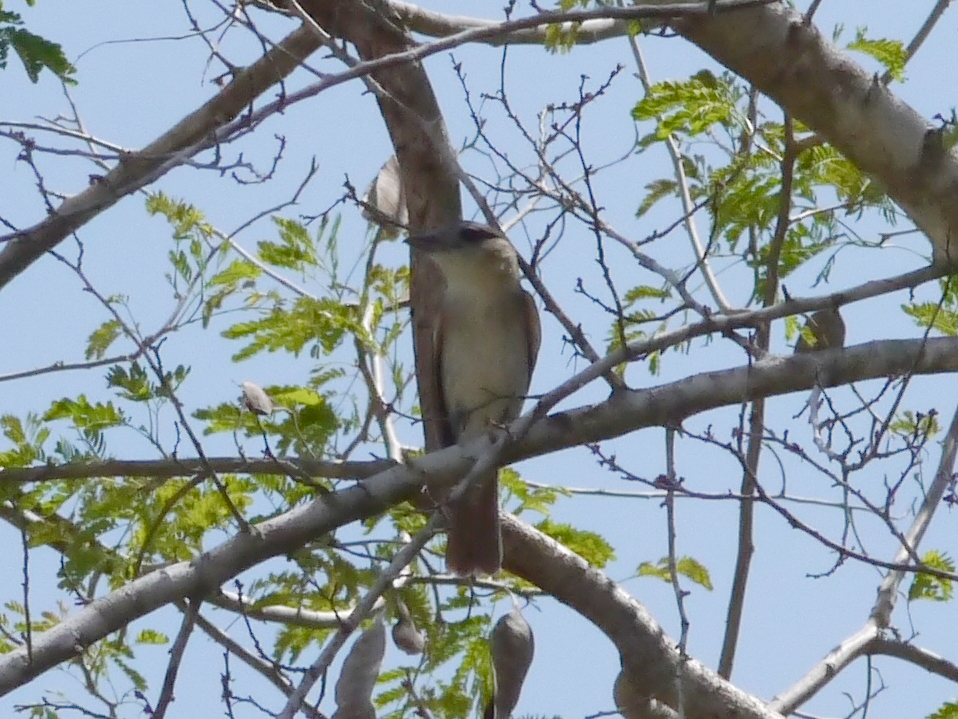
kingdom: Animalia
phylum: Chordata
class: Aves
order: Passeriformes
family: Cotingidae
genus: Pachyramphus
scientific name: Pachyramphus aglaiae
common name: Rose-throated becard
